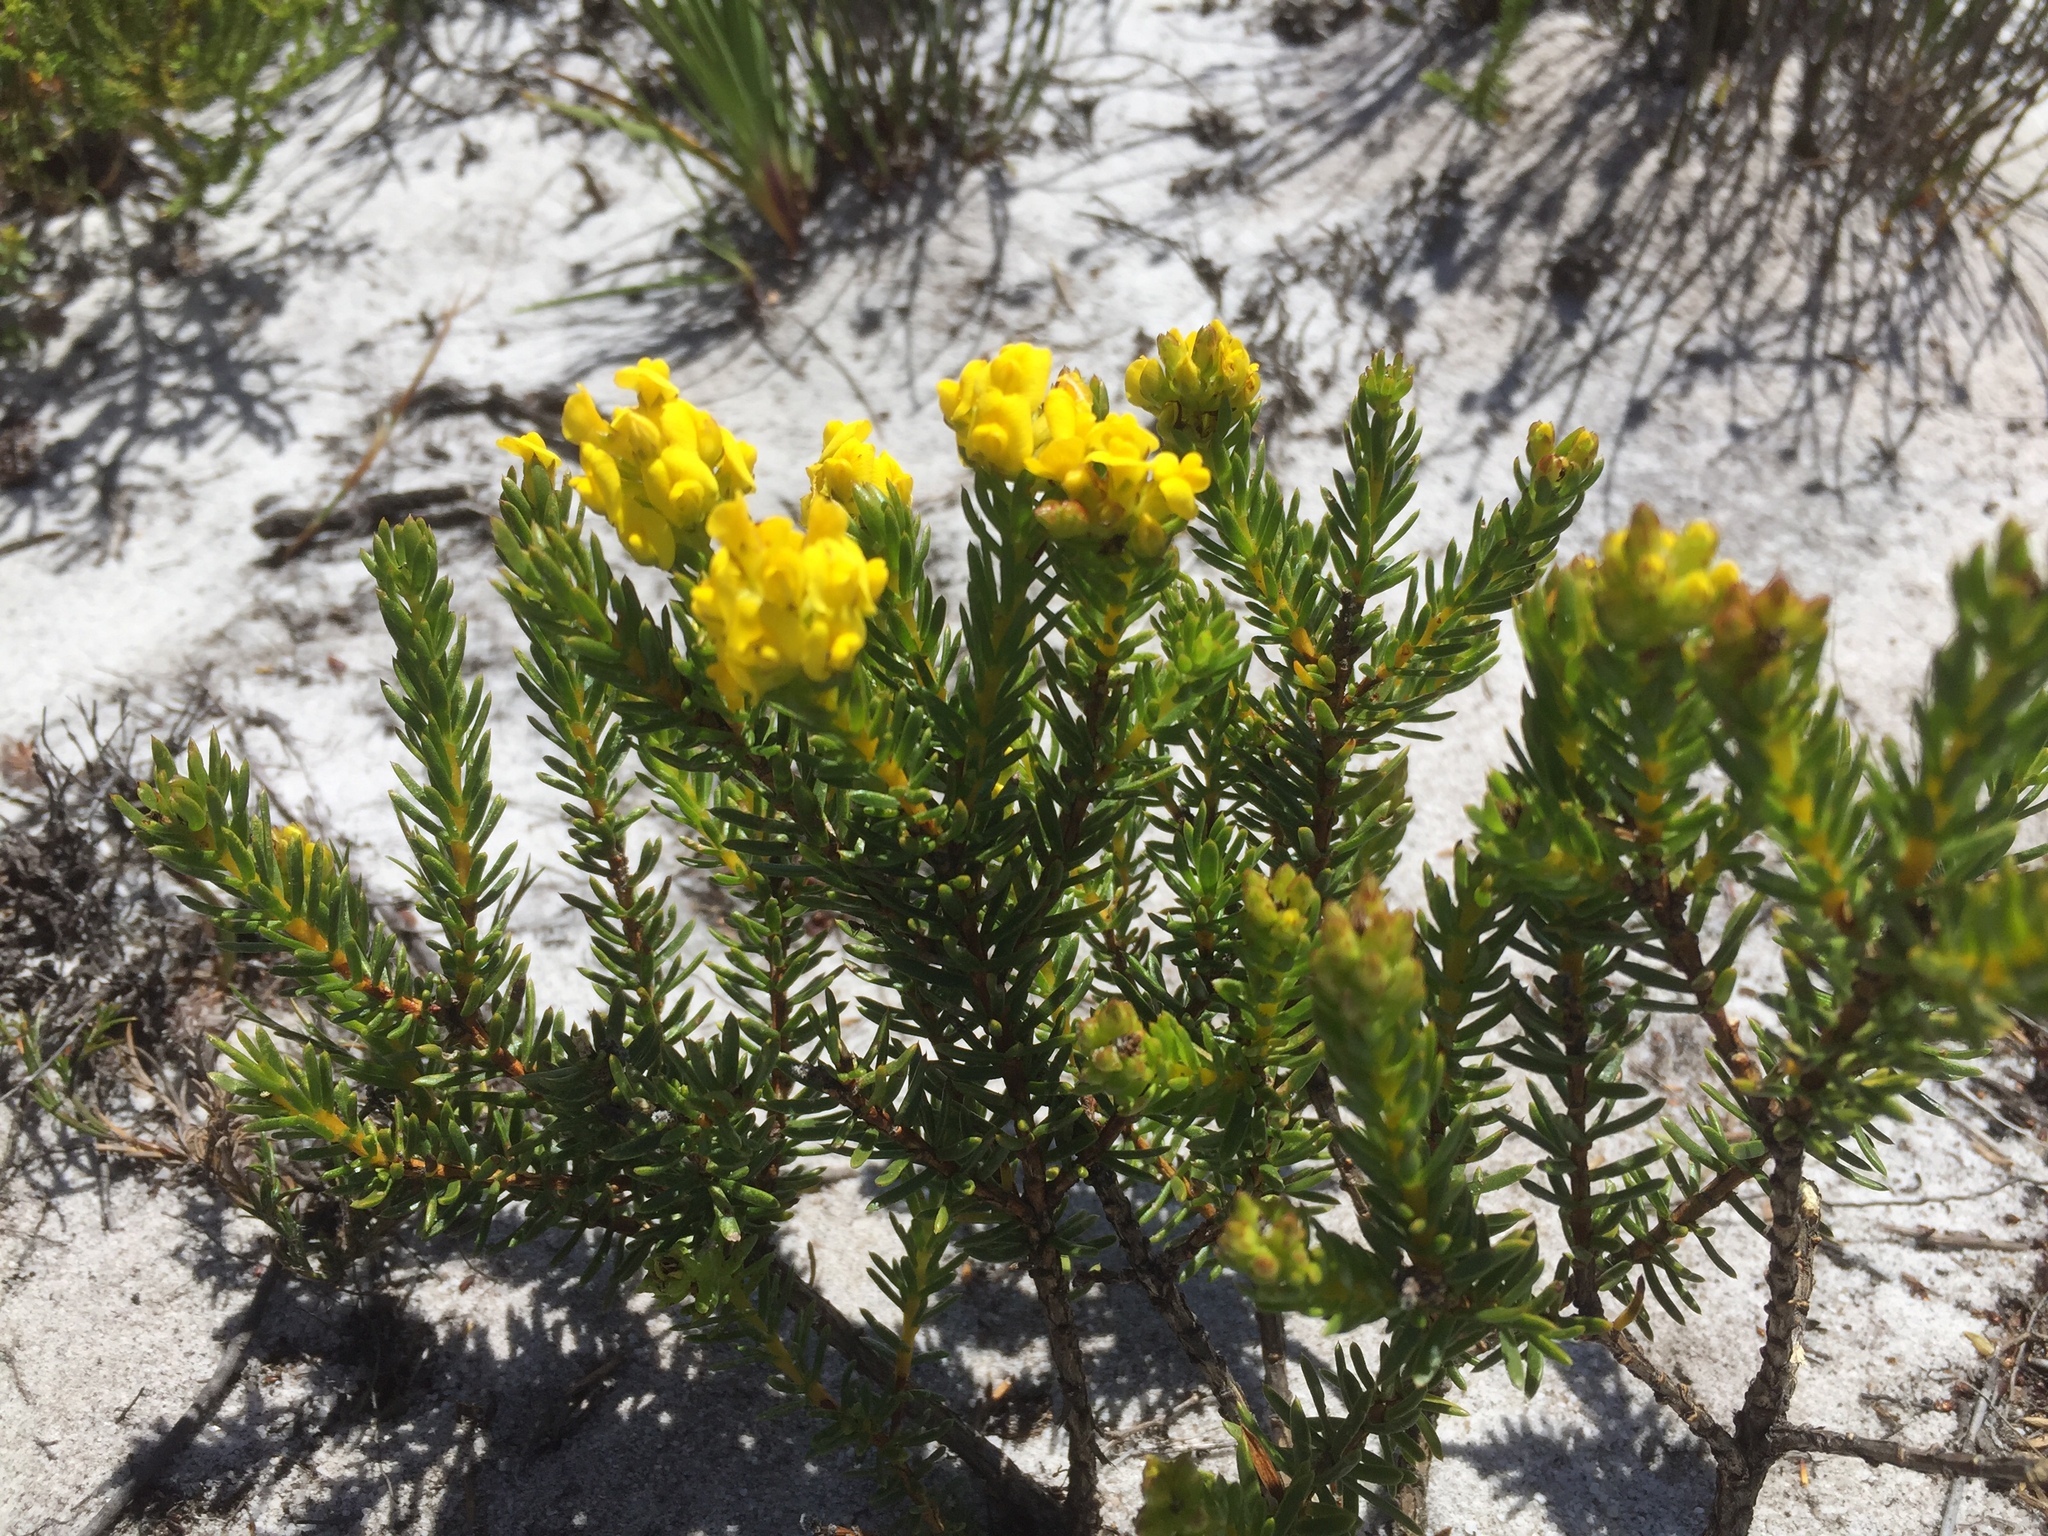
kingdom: Plantae
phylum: Tracheophyta
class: Magnoliopsida
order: Fabales
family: Fabaceae
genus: Aspalathus
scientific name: Aspalathus callosa
